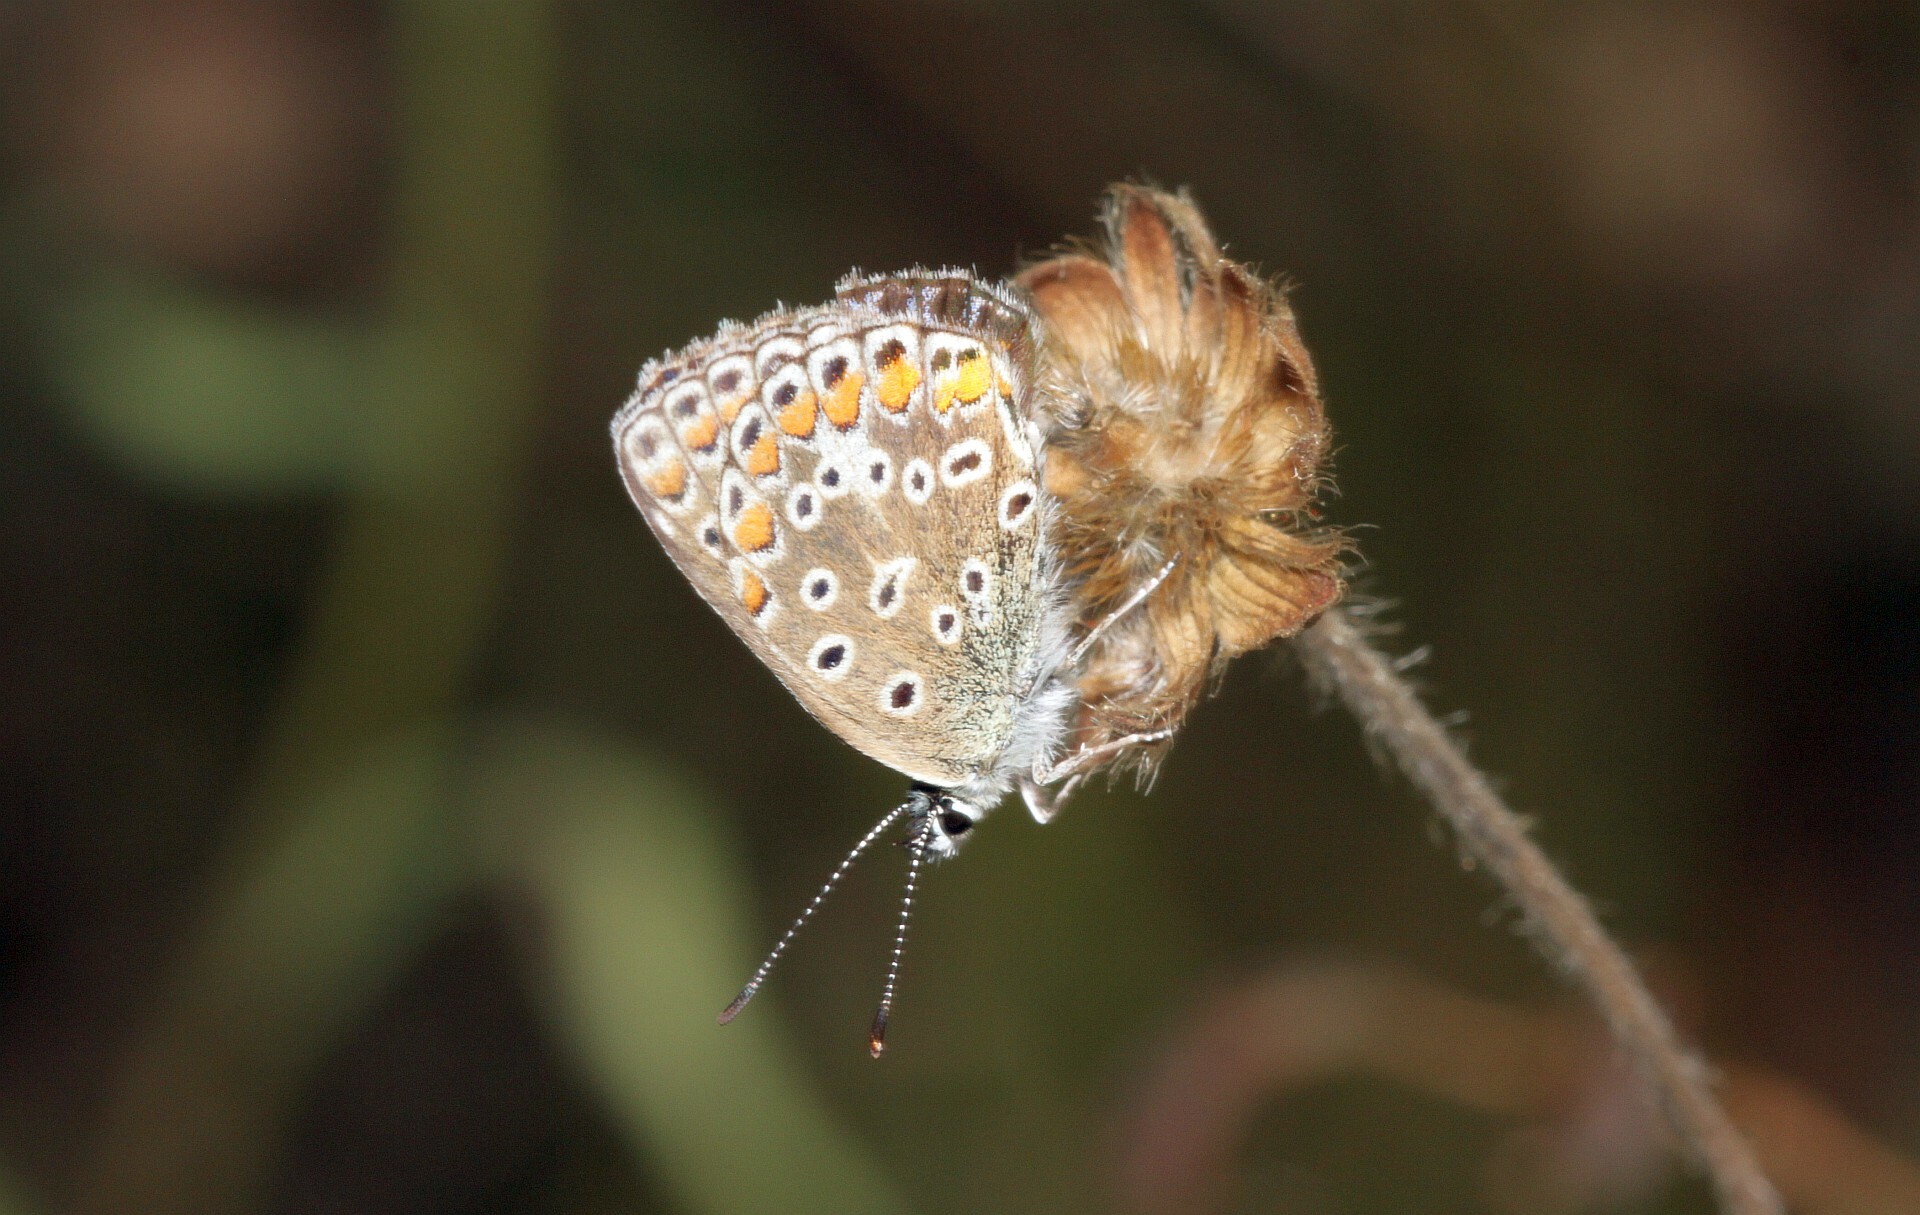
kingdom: Animalia
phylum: Arthropoda
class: Insecta
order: Lepidoptera
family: Lycaenidae
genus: Polyommatus
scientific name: Polyommatus icarus
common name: Common blue
